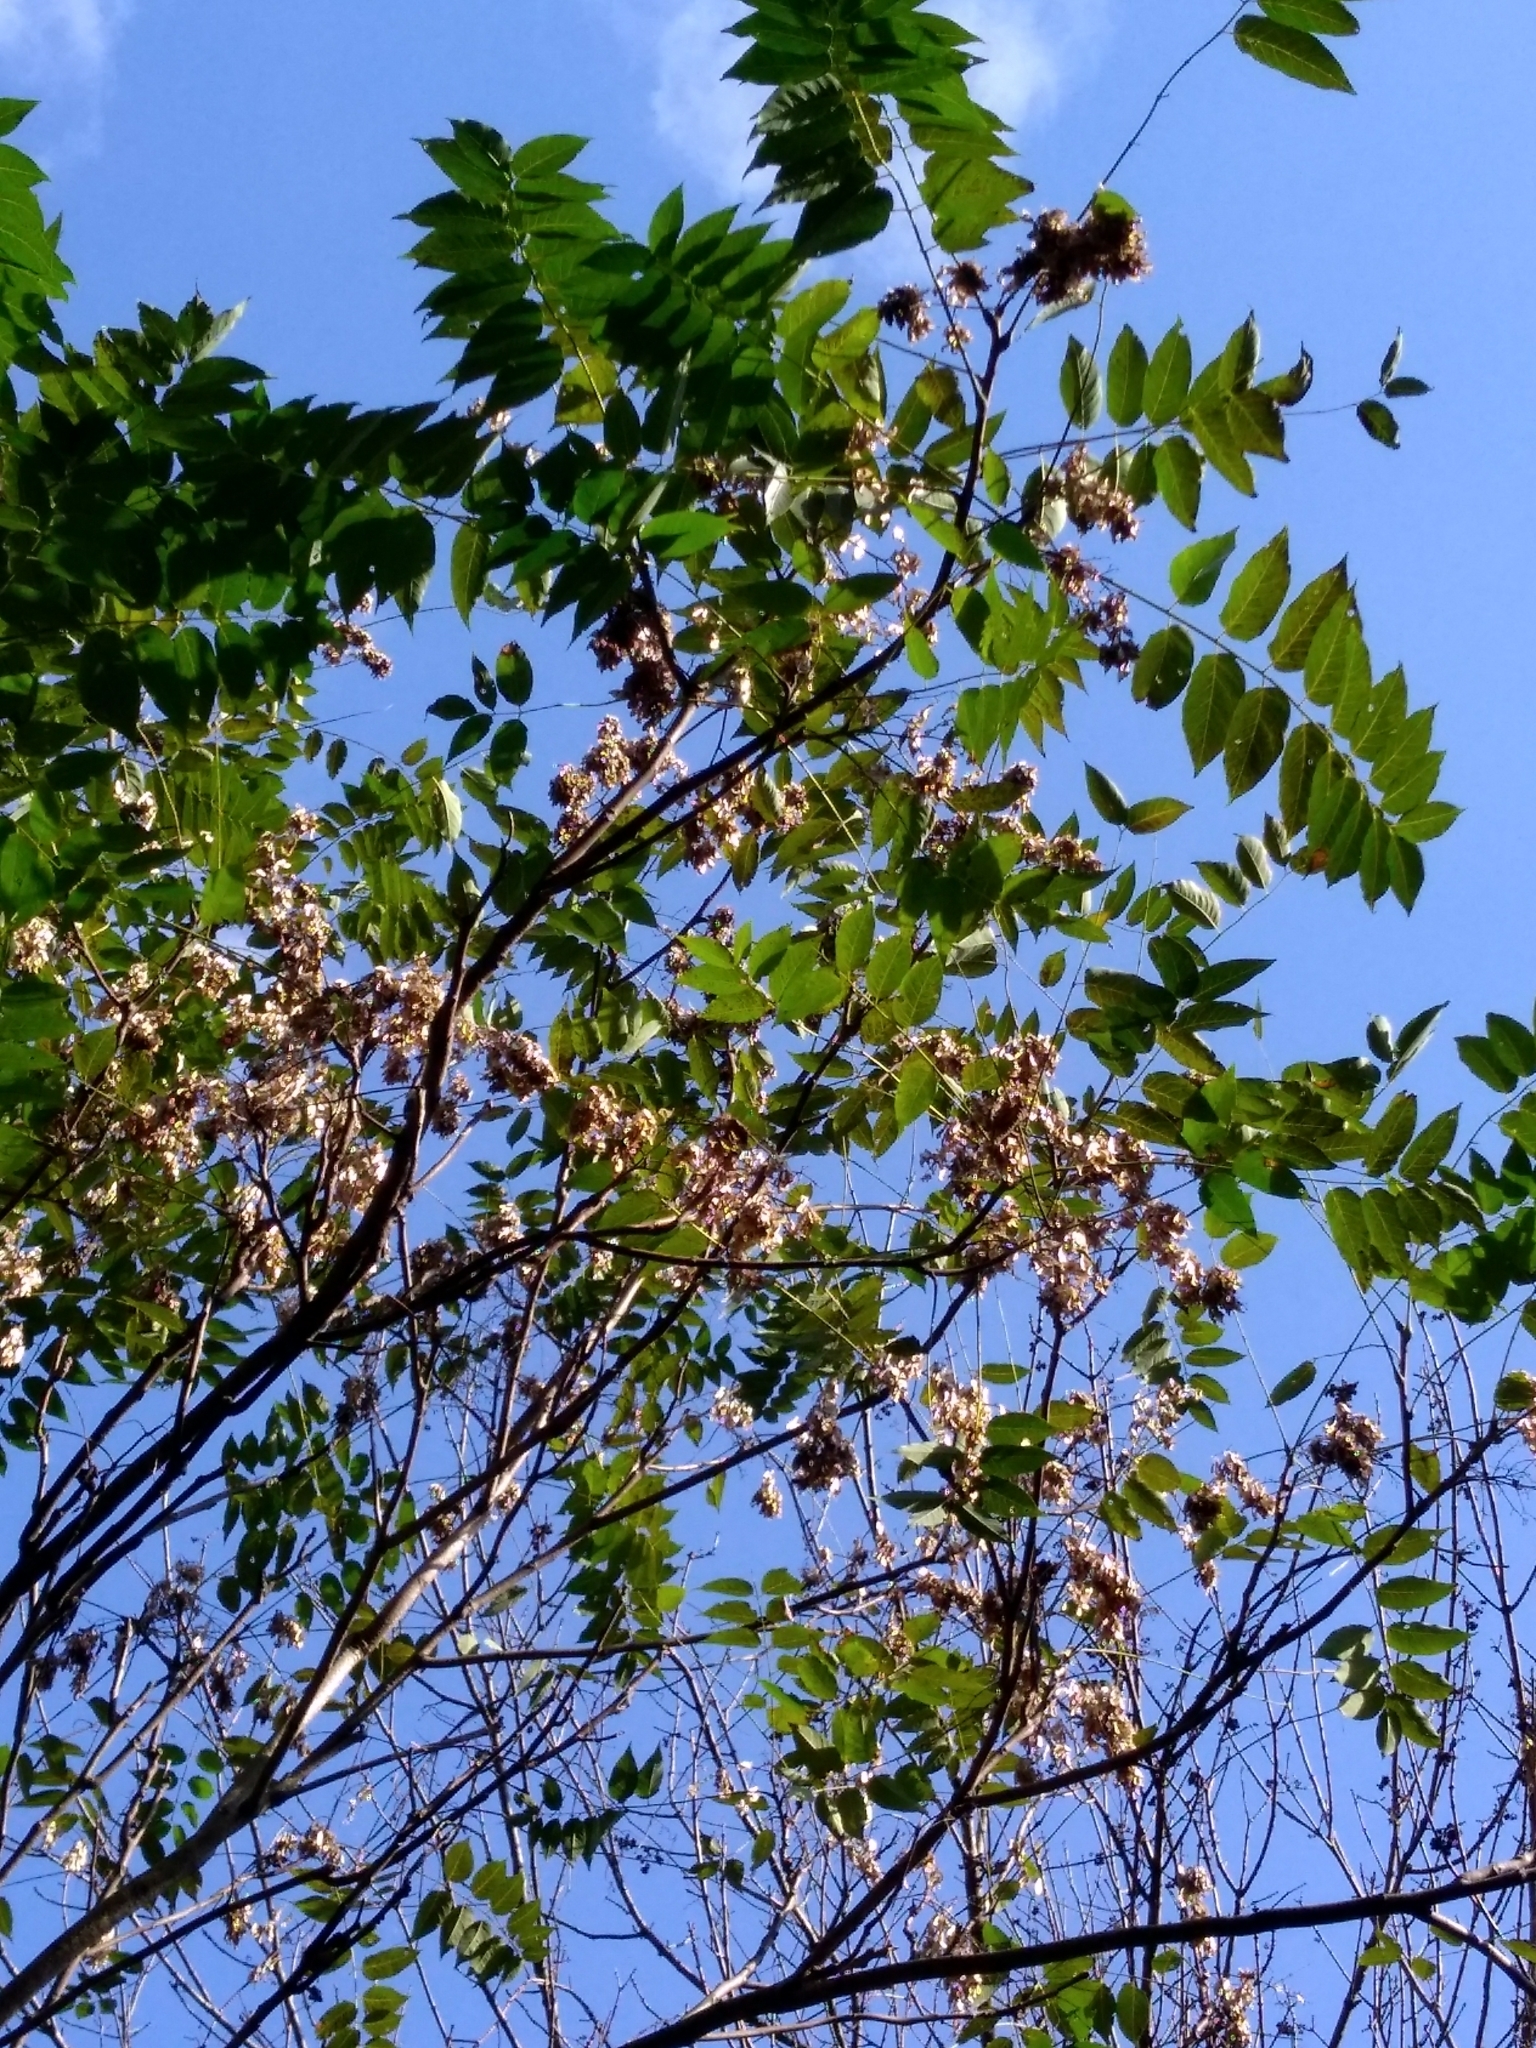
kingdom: Plantae
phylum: Tracheophyta
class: Magnoliopsida
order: Sapindales
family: Simaroubaceae
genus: Ailanthus
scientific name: Ailanthus altissima
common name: Tree-of-heaven
